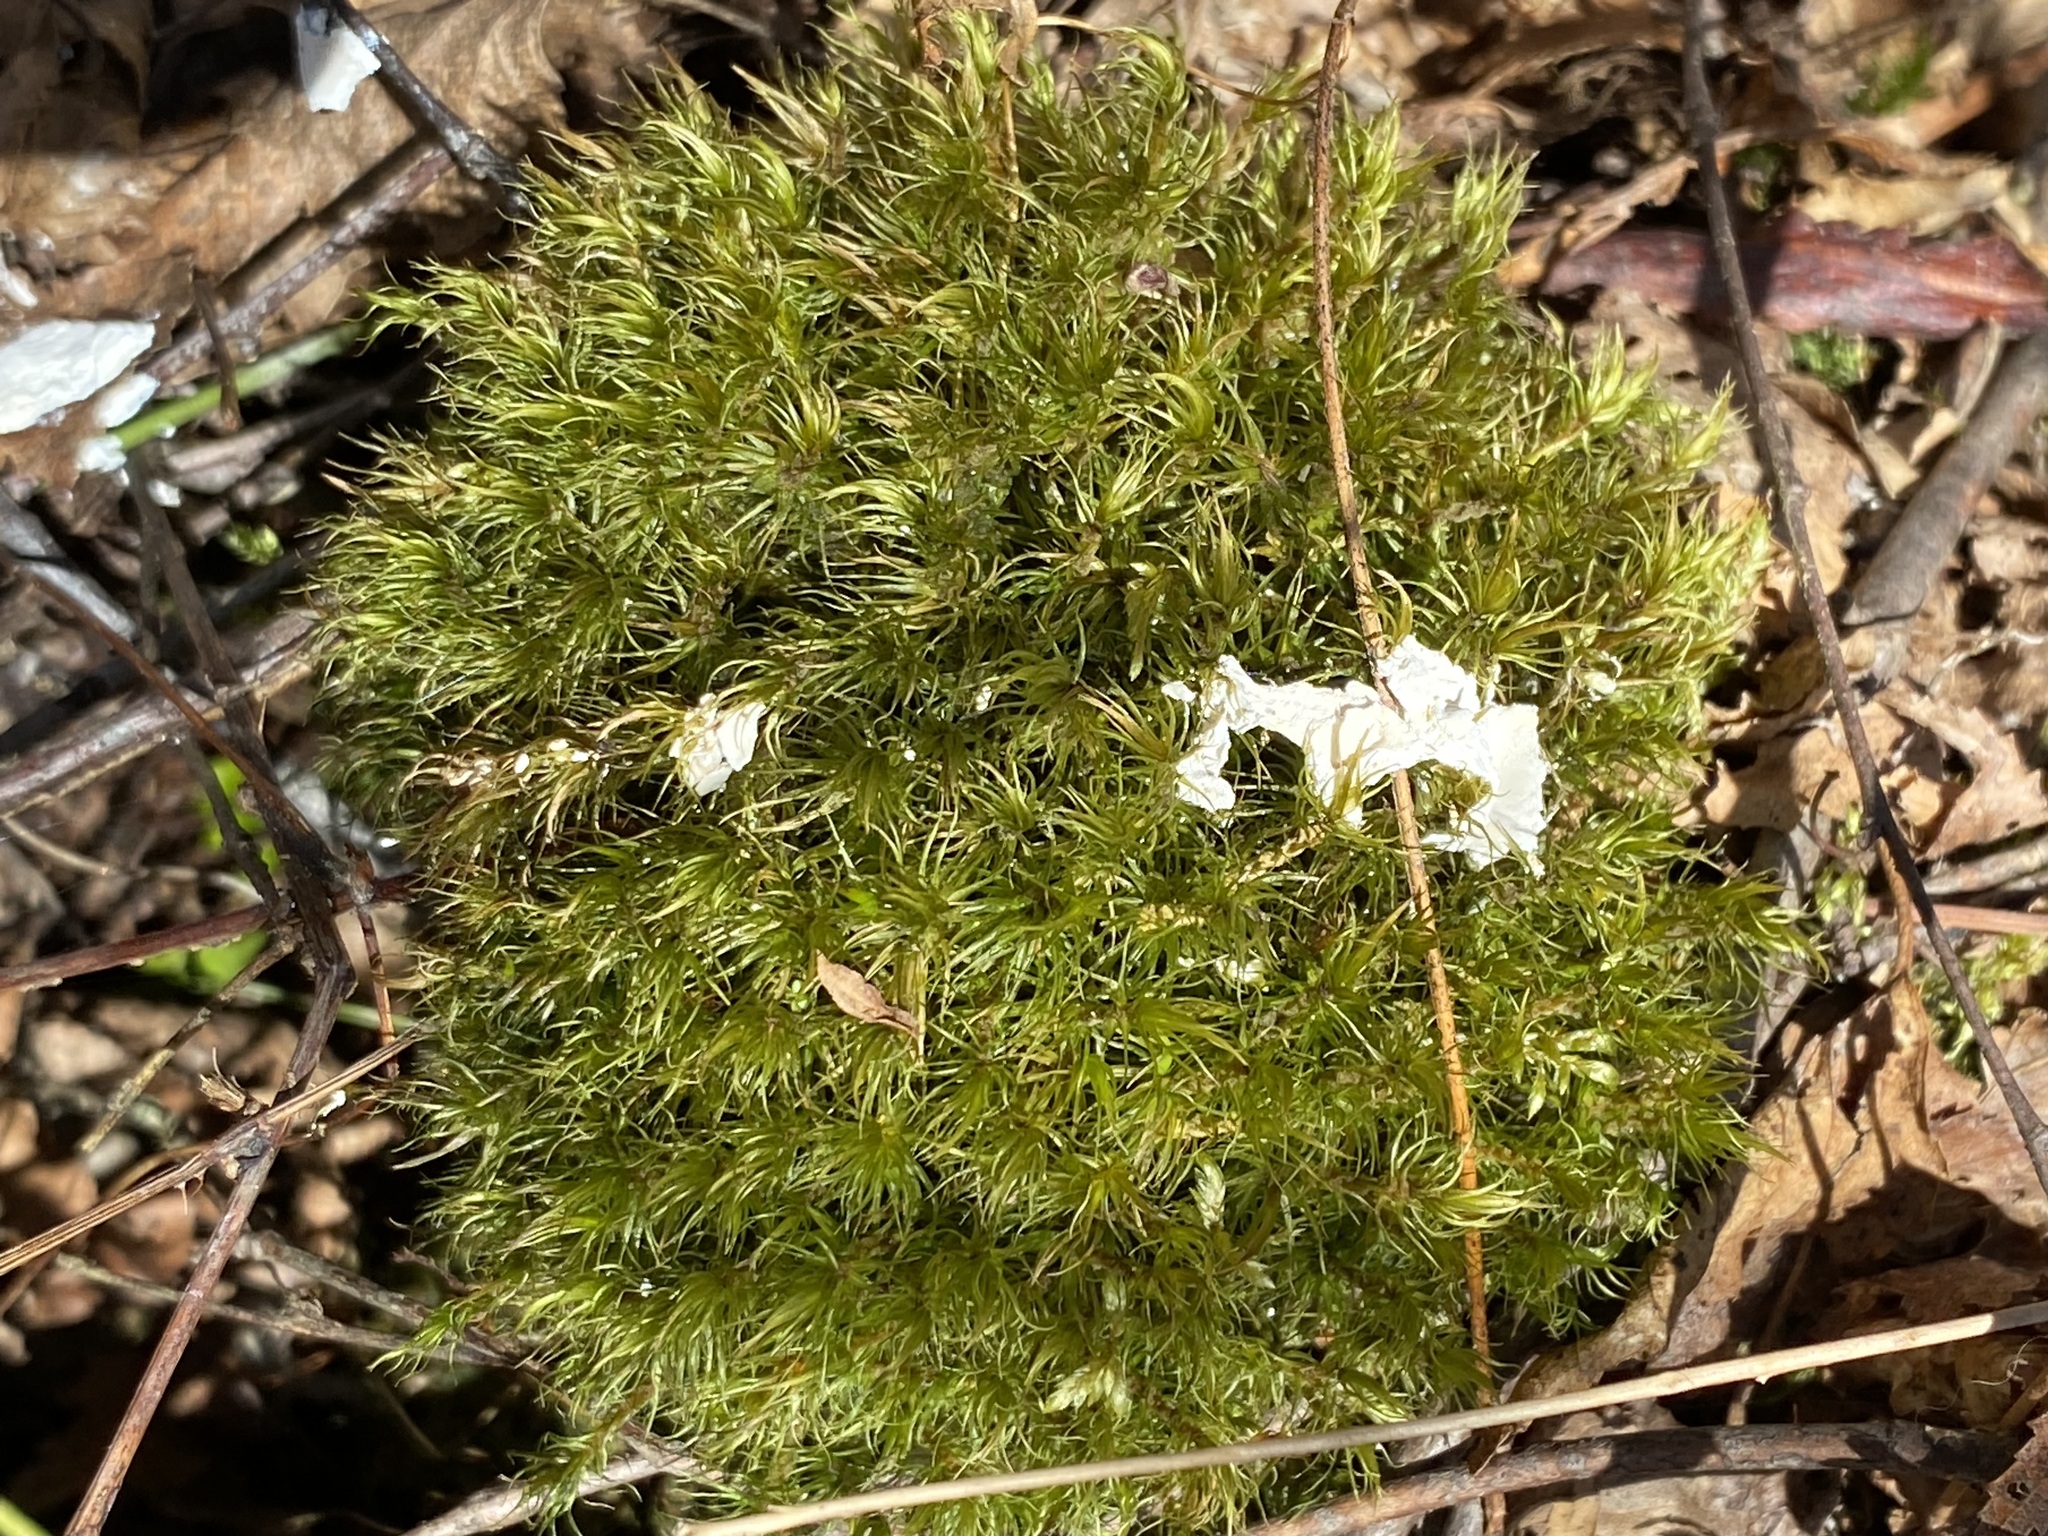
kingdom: Plantae
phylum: Bryophyta
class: Bryopsida
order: Dicranales
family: Dicranaceae
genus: Dicranum
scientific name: Dicranum scoparium
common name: Broom fork-moss
